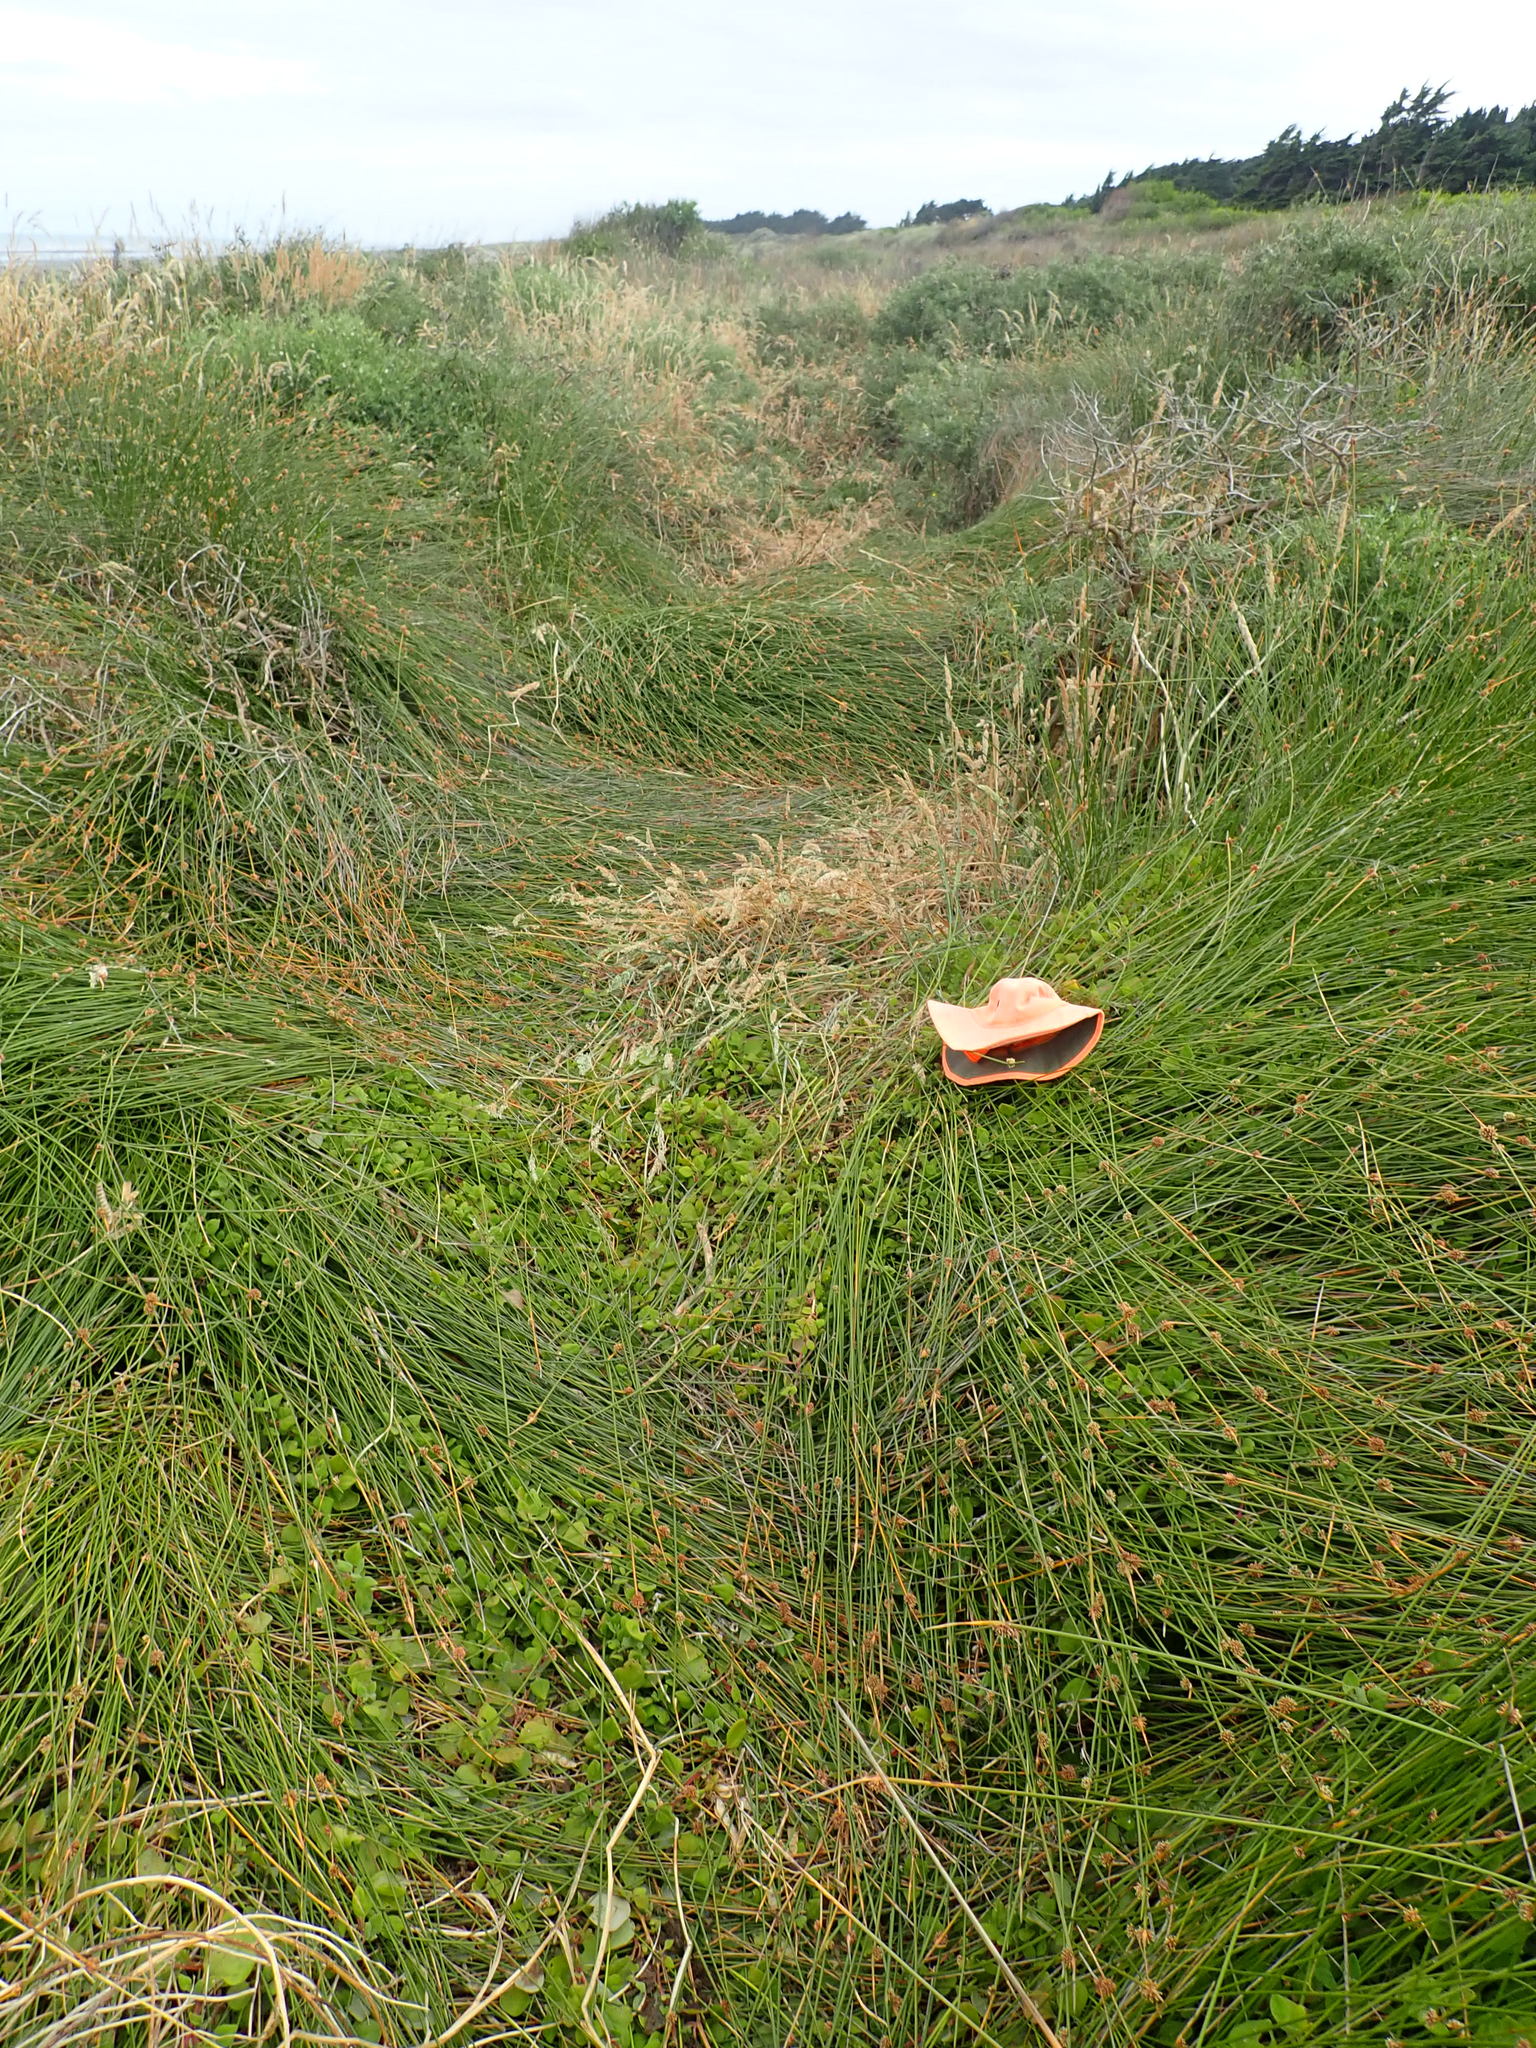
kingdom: Plantae
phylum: Tracheophyta
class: Liliopsida
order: Poales
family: Cyperaceae
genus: Ficinia
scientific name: Ficinia nodosa
